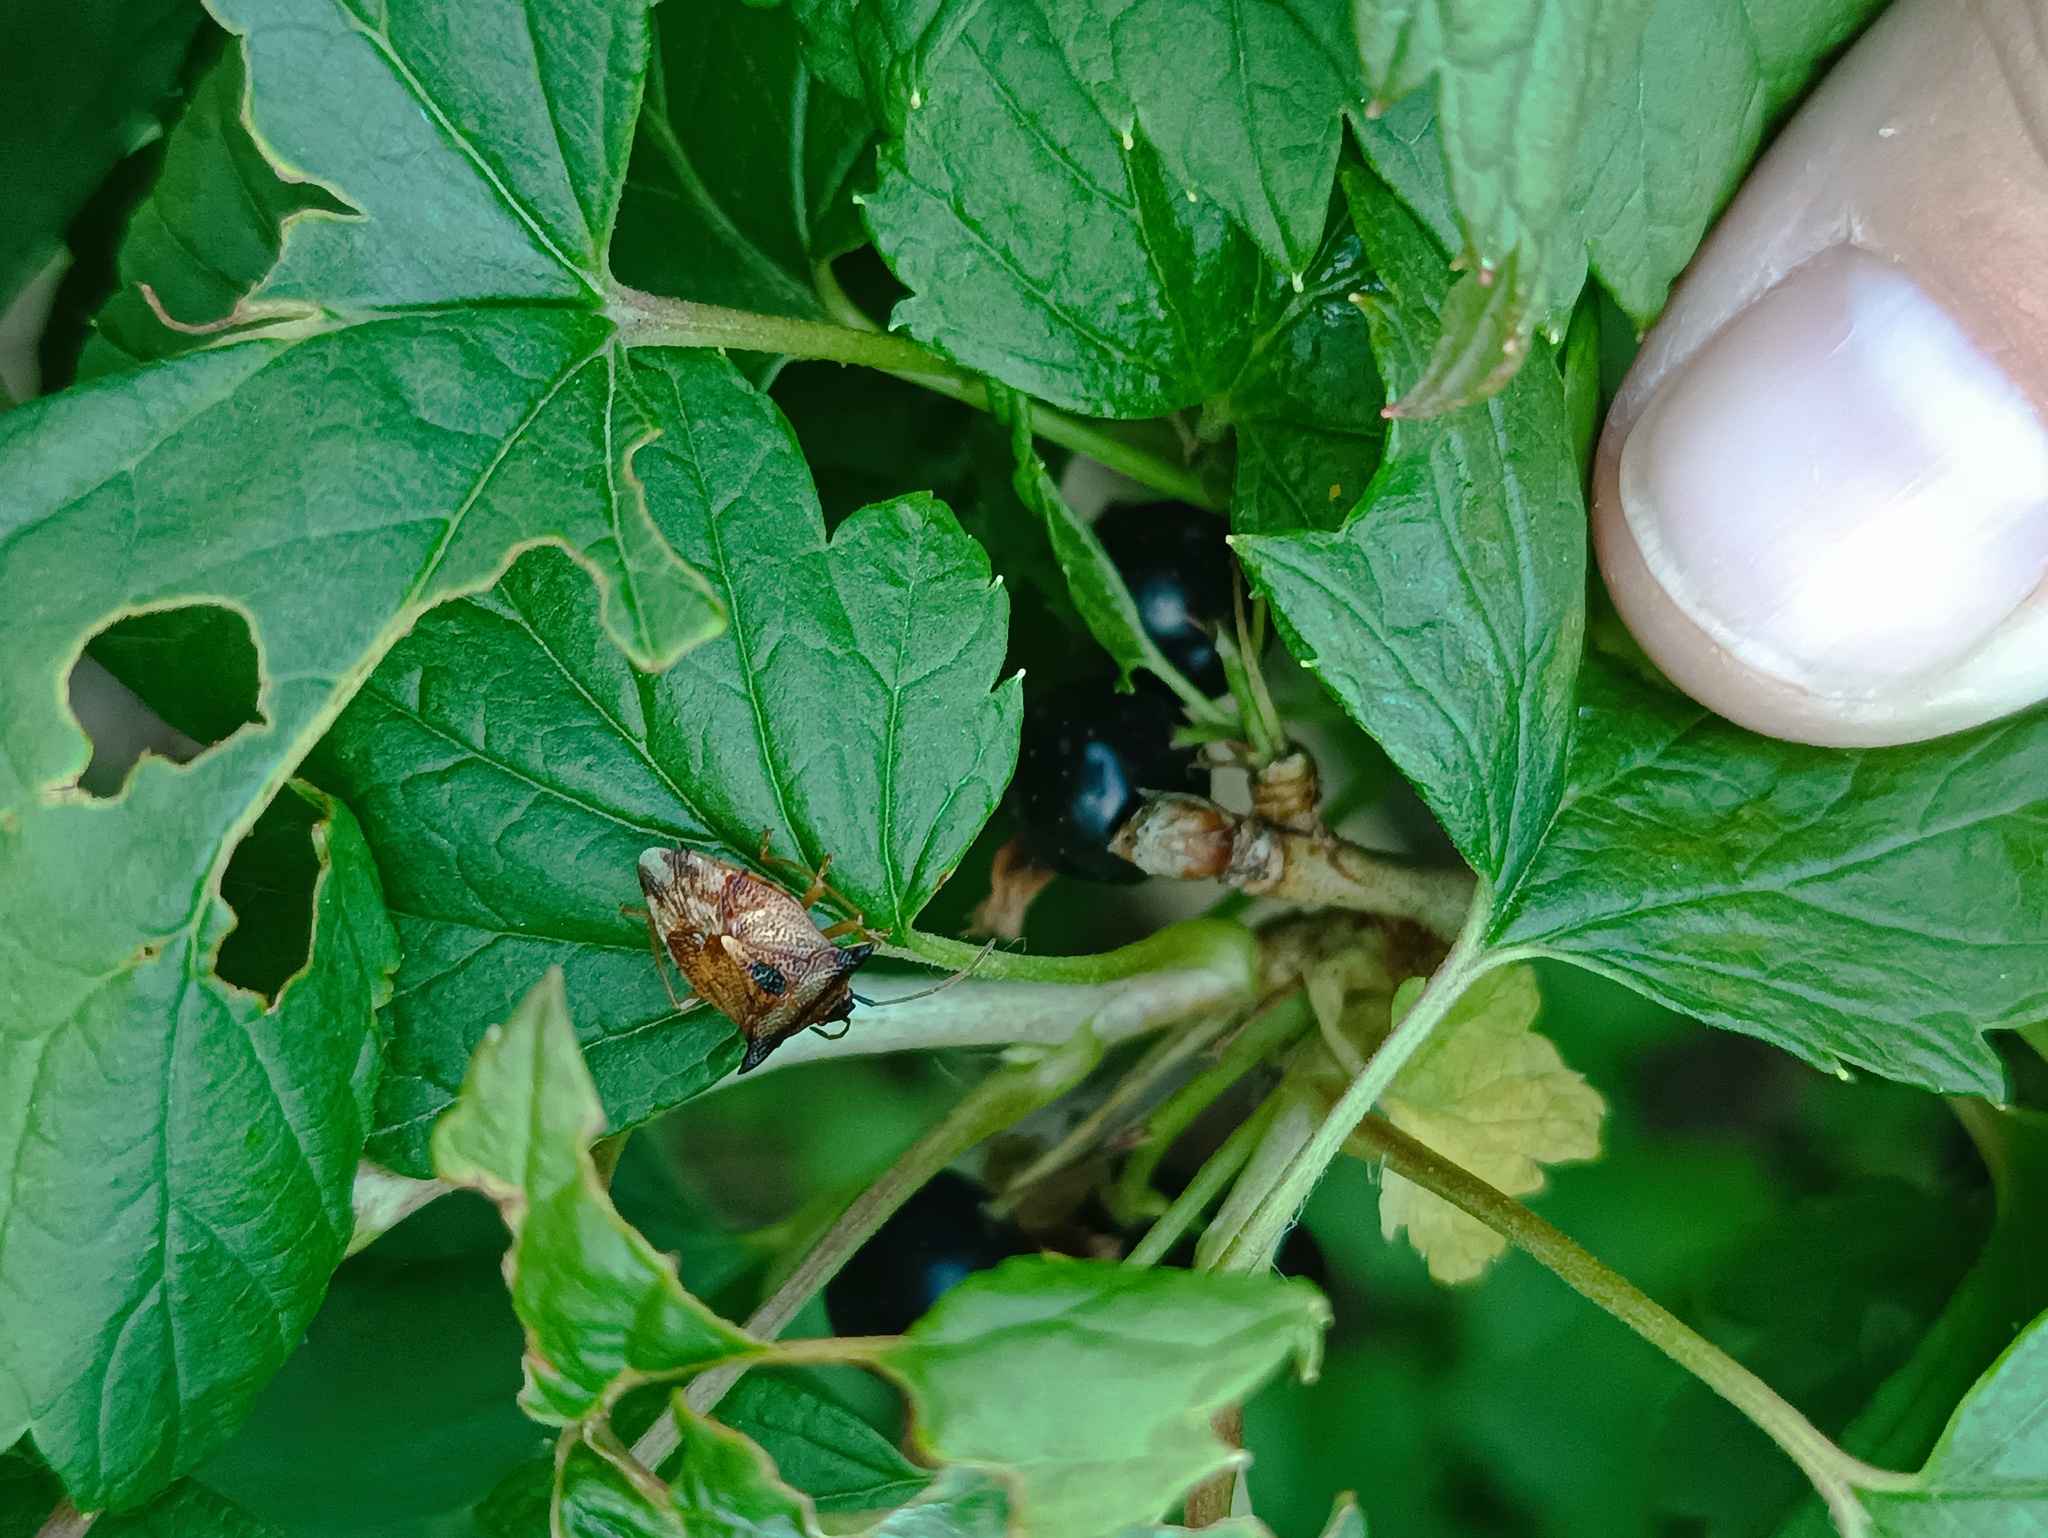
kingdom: Animalia
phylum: Arthropoda
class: Insecta
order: Hemiptera
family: Acanthosomatidae
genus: Elasmucha
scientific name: Elasmucha ferrugata
